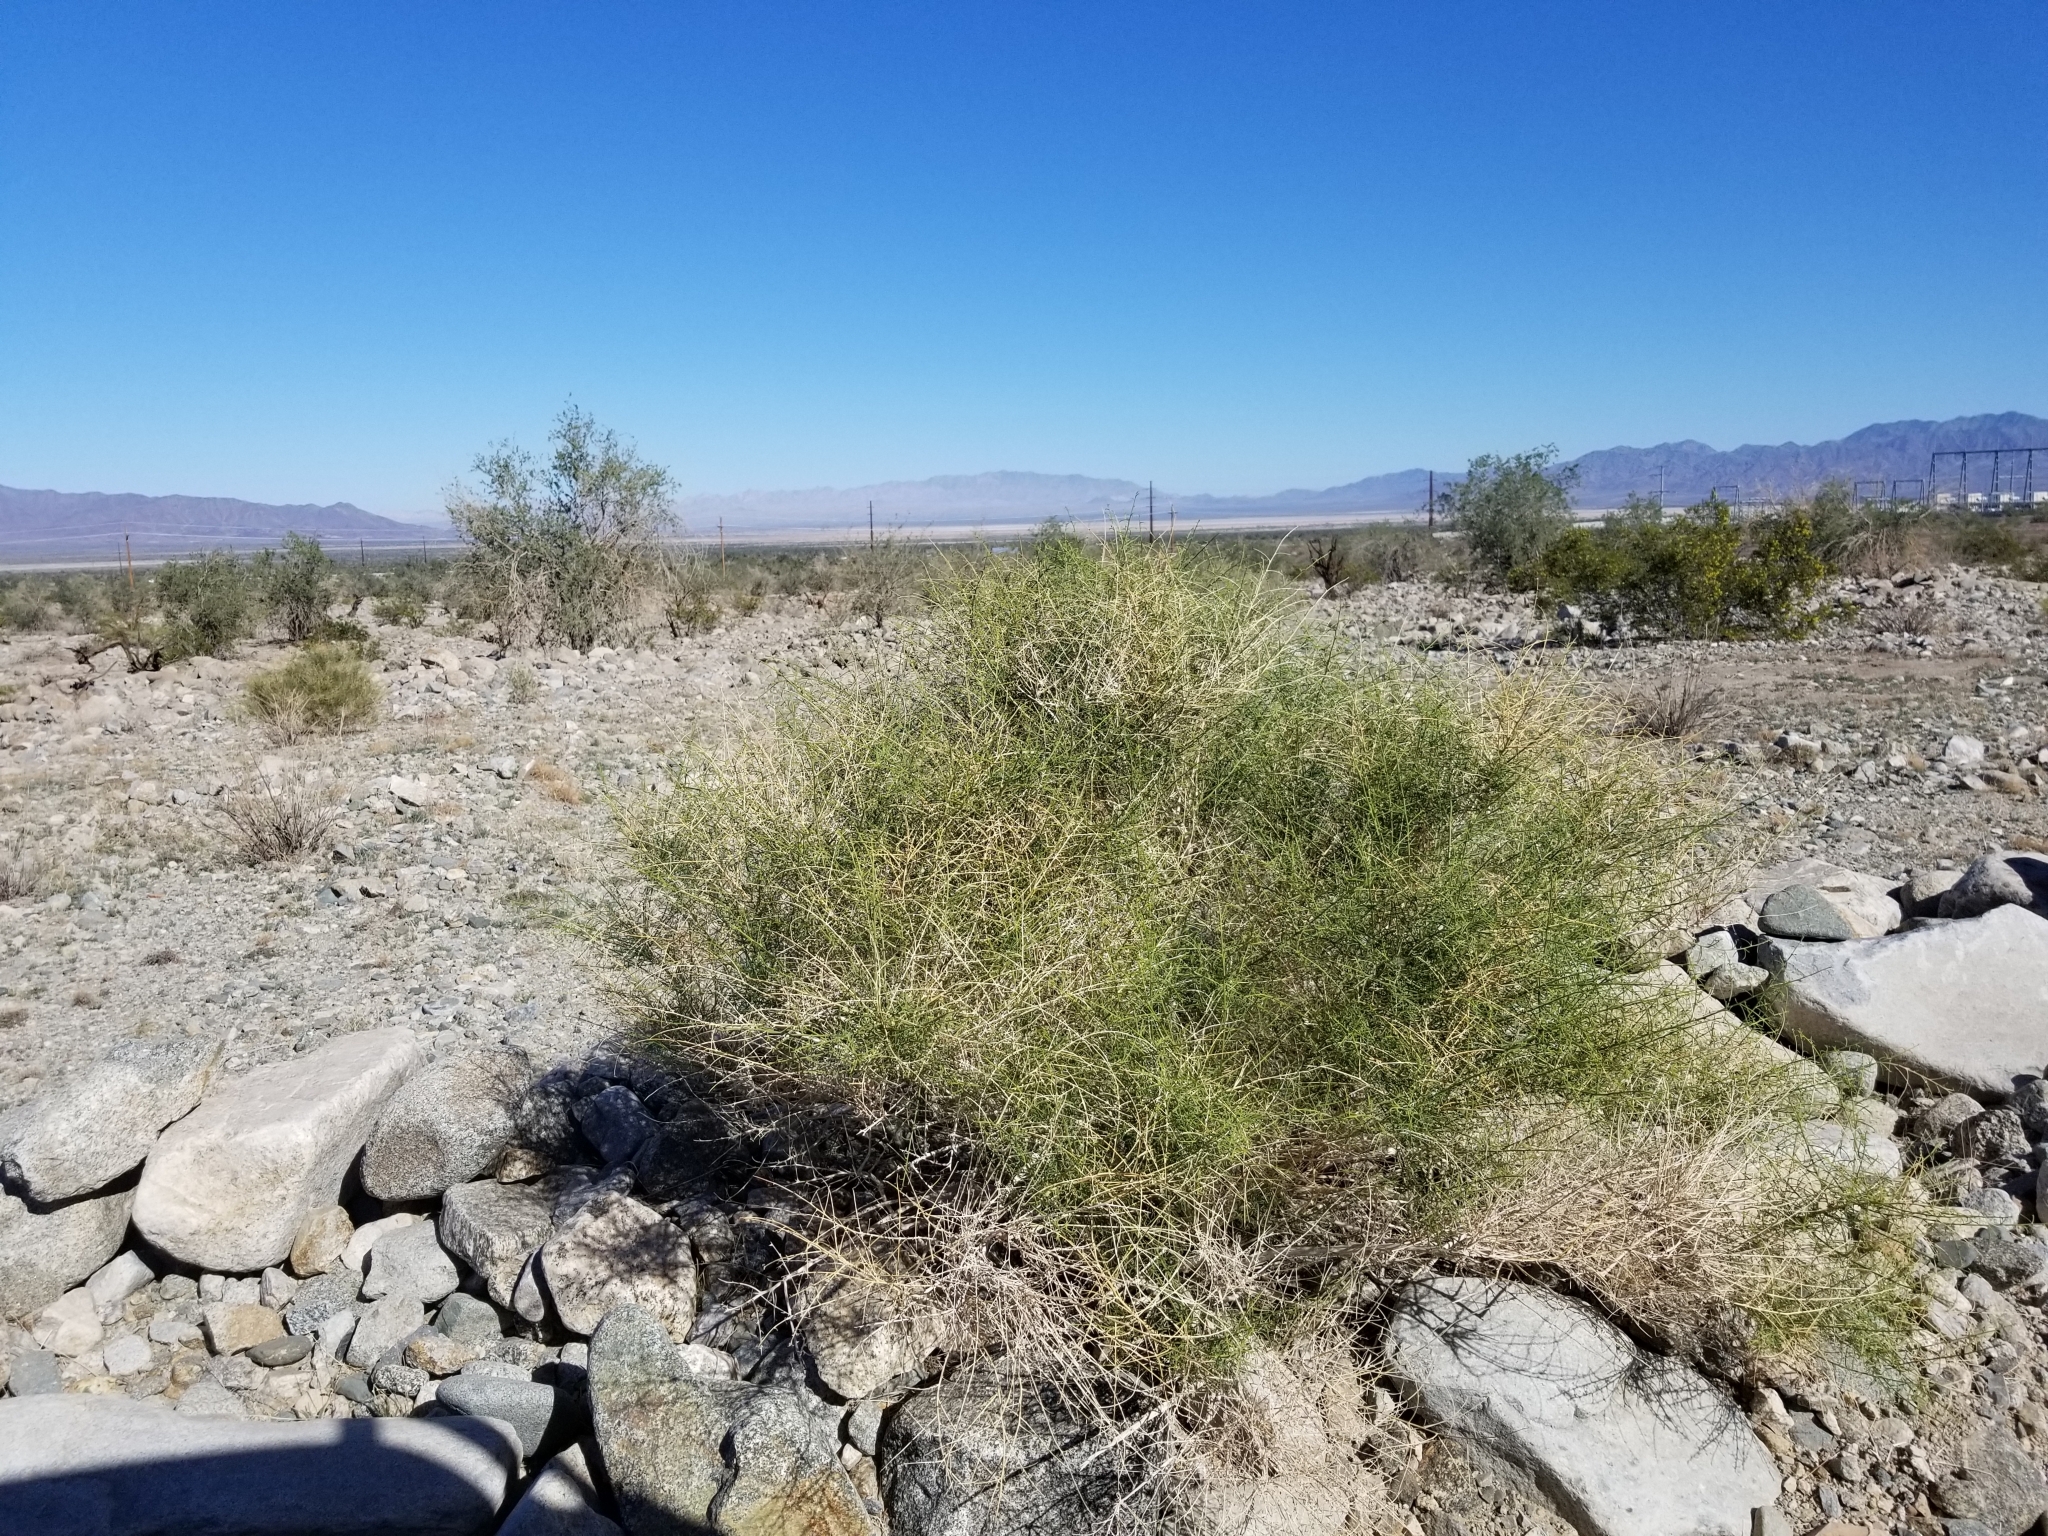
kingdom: Plantae
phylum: Tracheophyta
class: Magnoliopsida
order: Asterales
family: Asteraceae
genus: Ambrosia
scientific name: Ambrosia salsola
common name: Burrobrush
